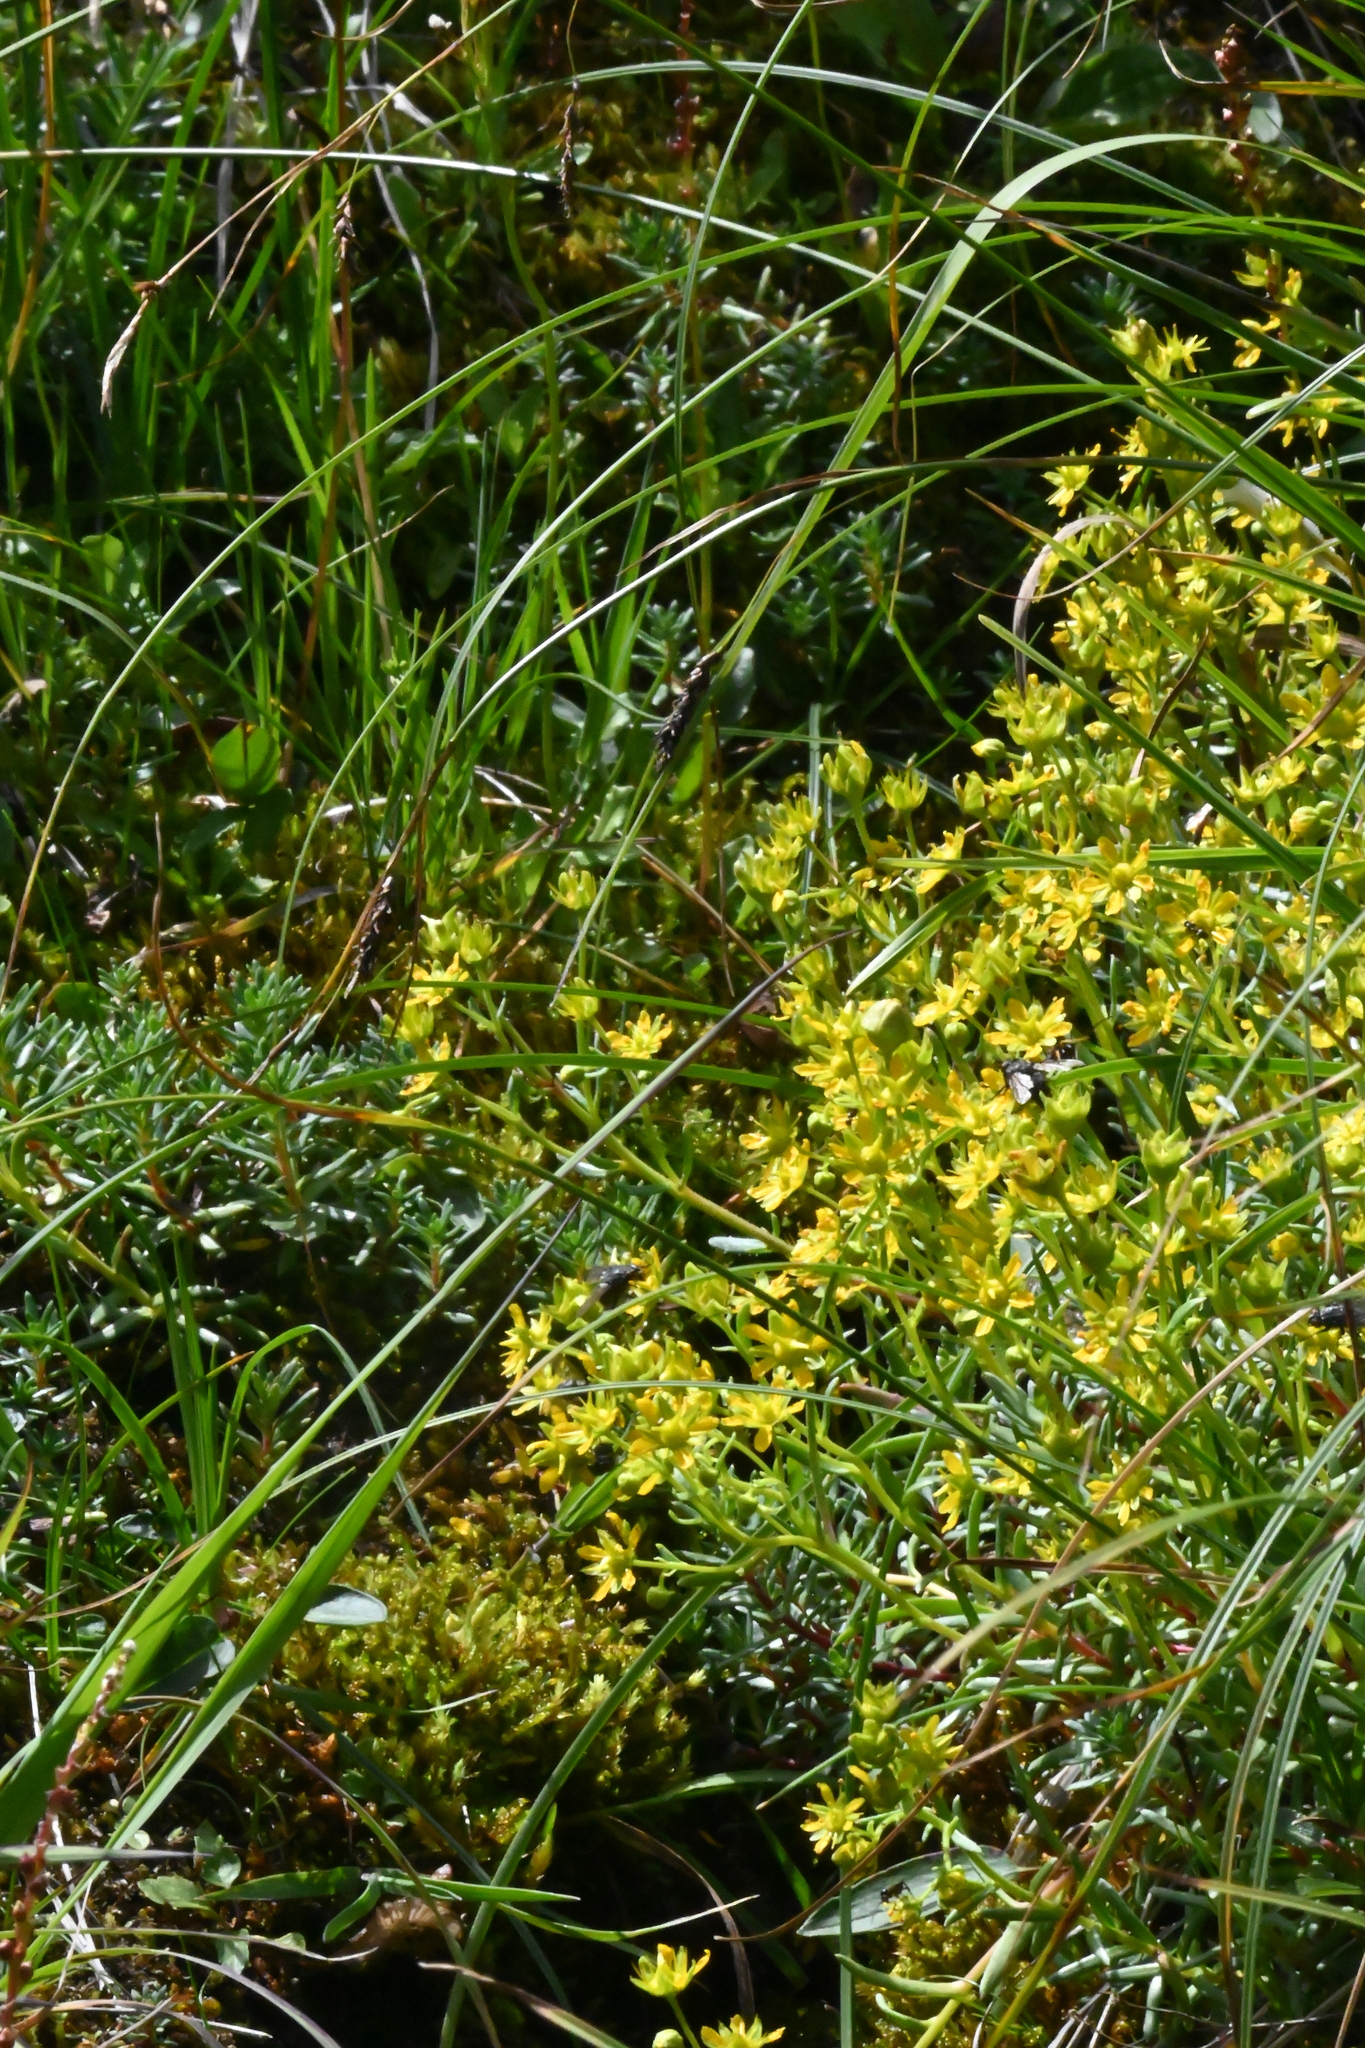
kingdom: Plantae
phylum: Tracheophyta
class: Magnoliopsida
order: Saxifragales
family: Saxifragaceae
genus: Saxifraga
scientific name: Saxifraga aizoides
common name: Yellow mountain saxifrage
